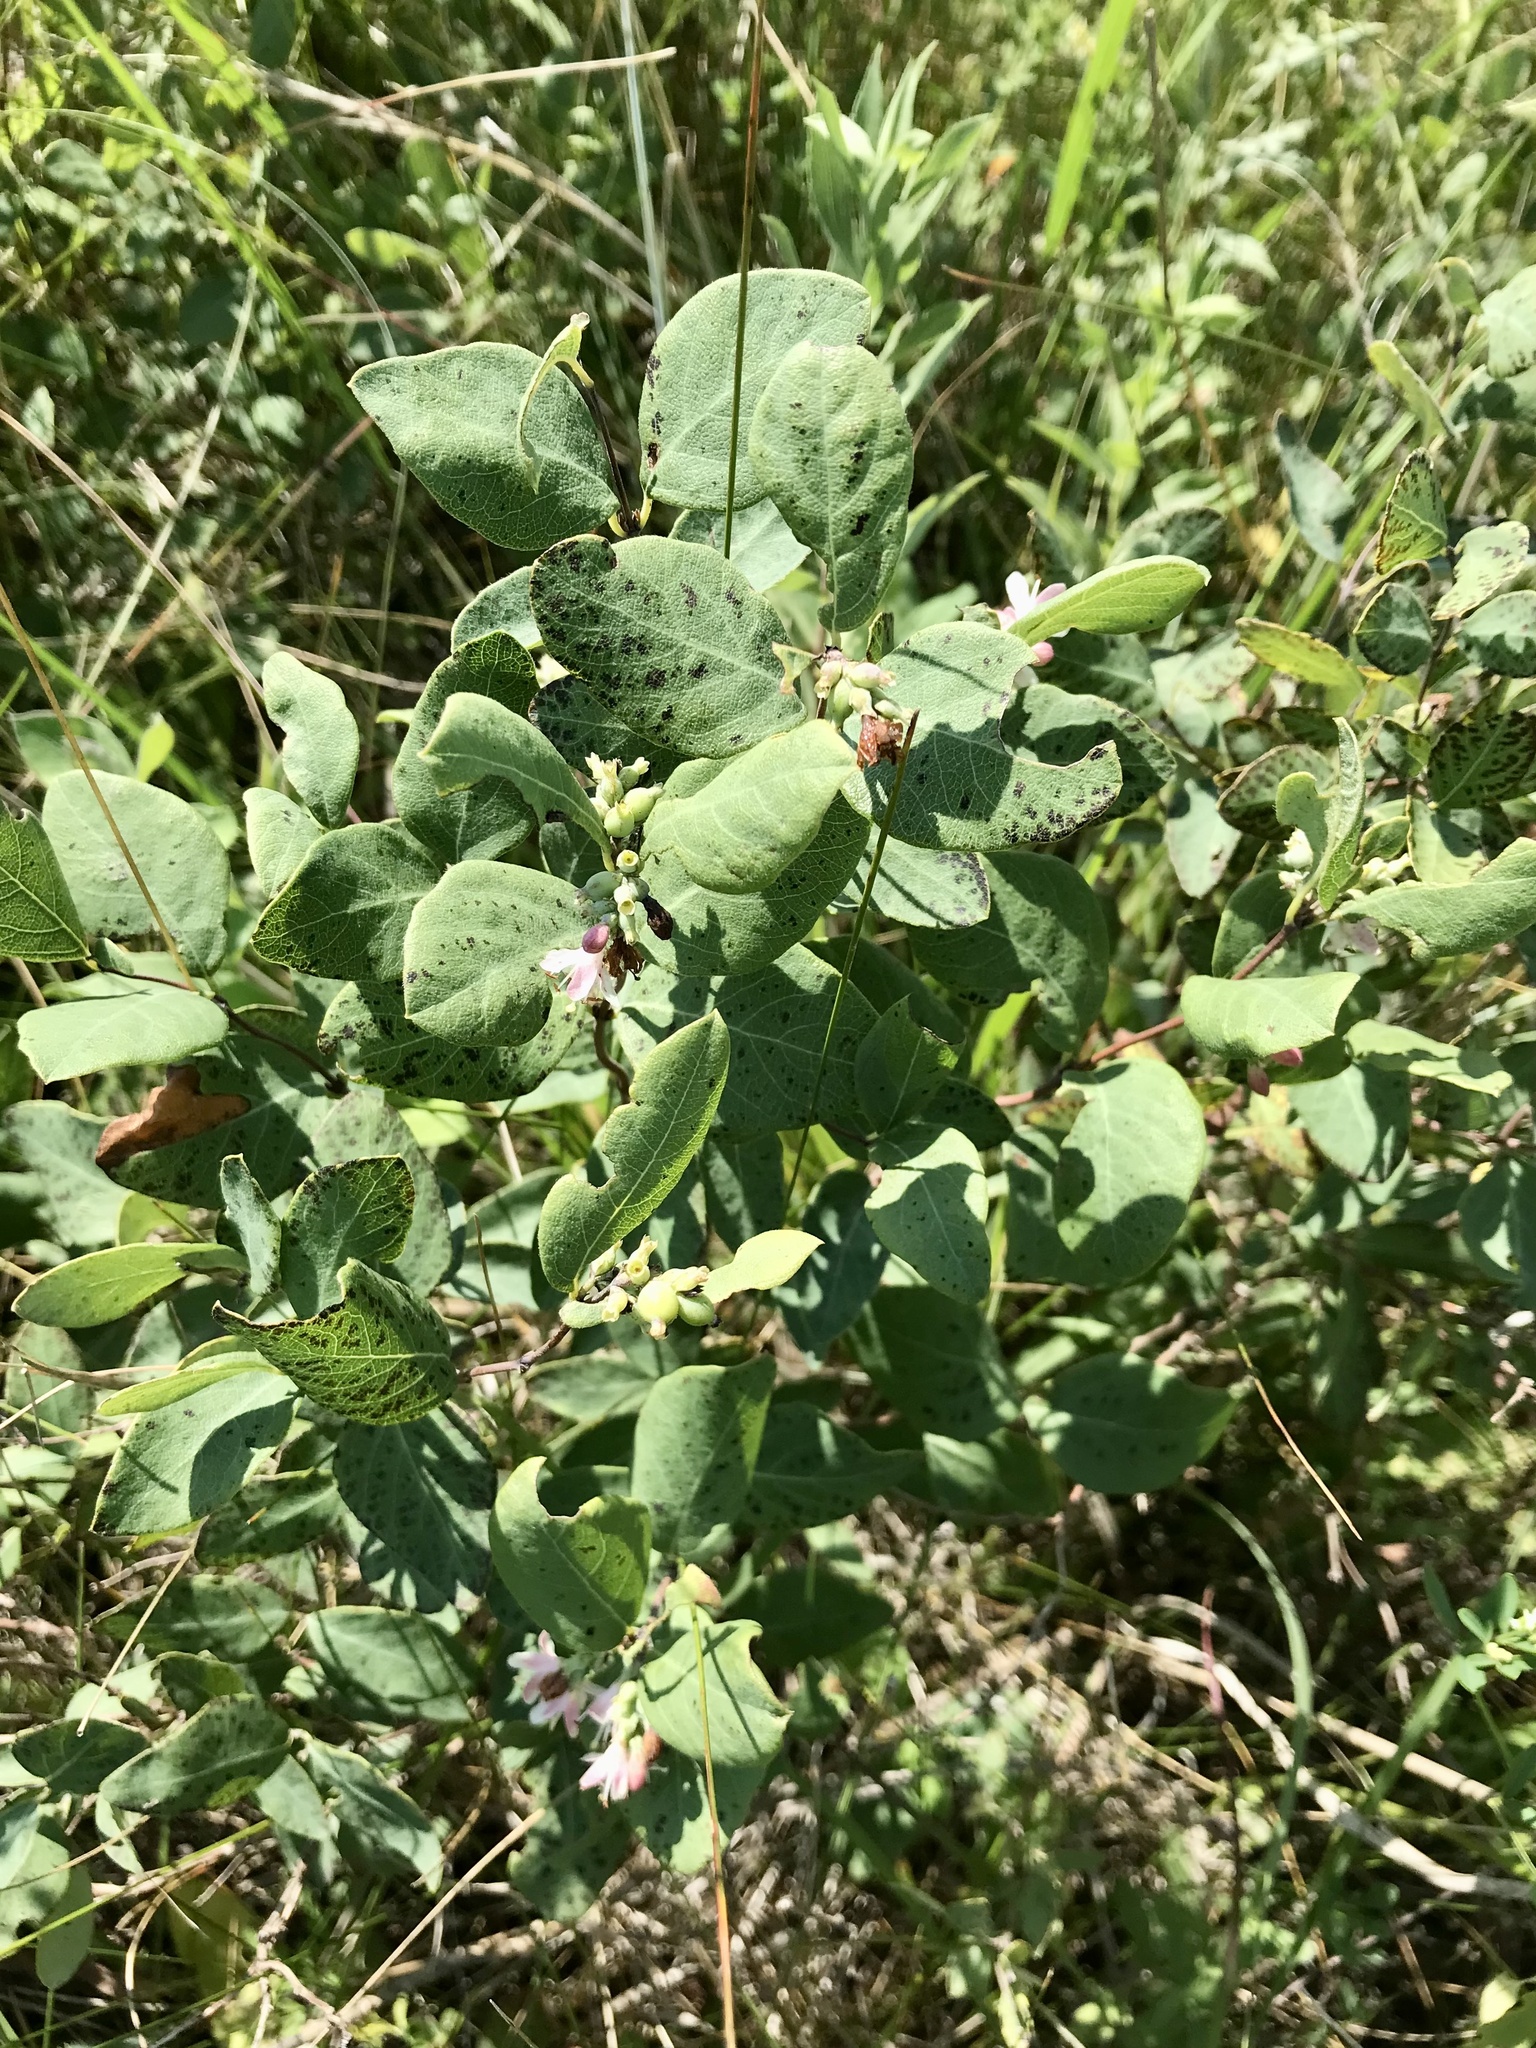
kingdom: Plantae
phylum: Tracheophyta
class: Magnoliopsida
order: Dipsacales
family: Caprifoliaceae
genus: Symphoricarpos
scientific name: Symphoricarpos occidentalis
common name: Wolfberry
